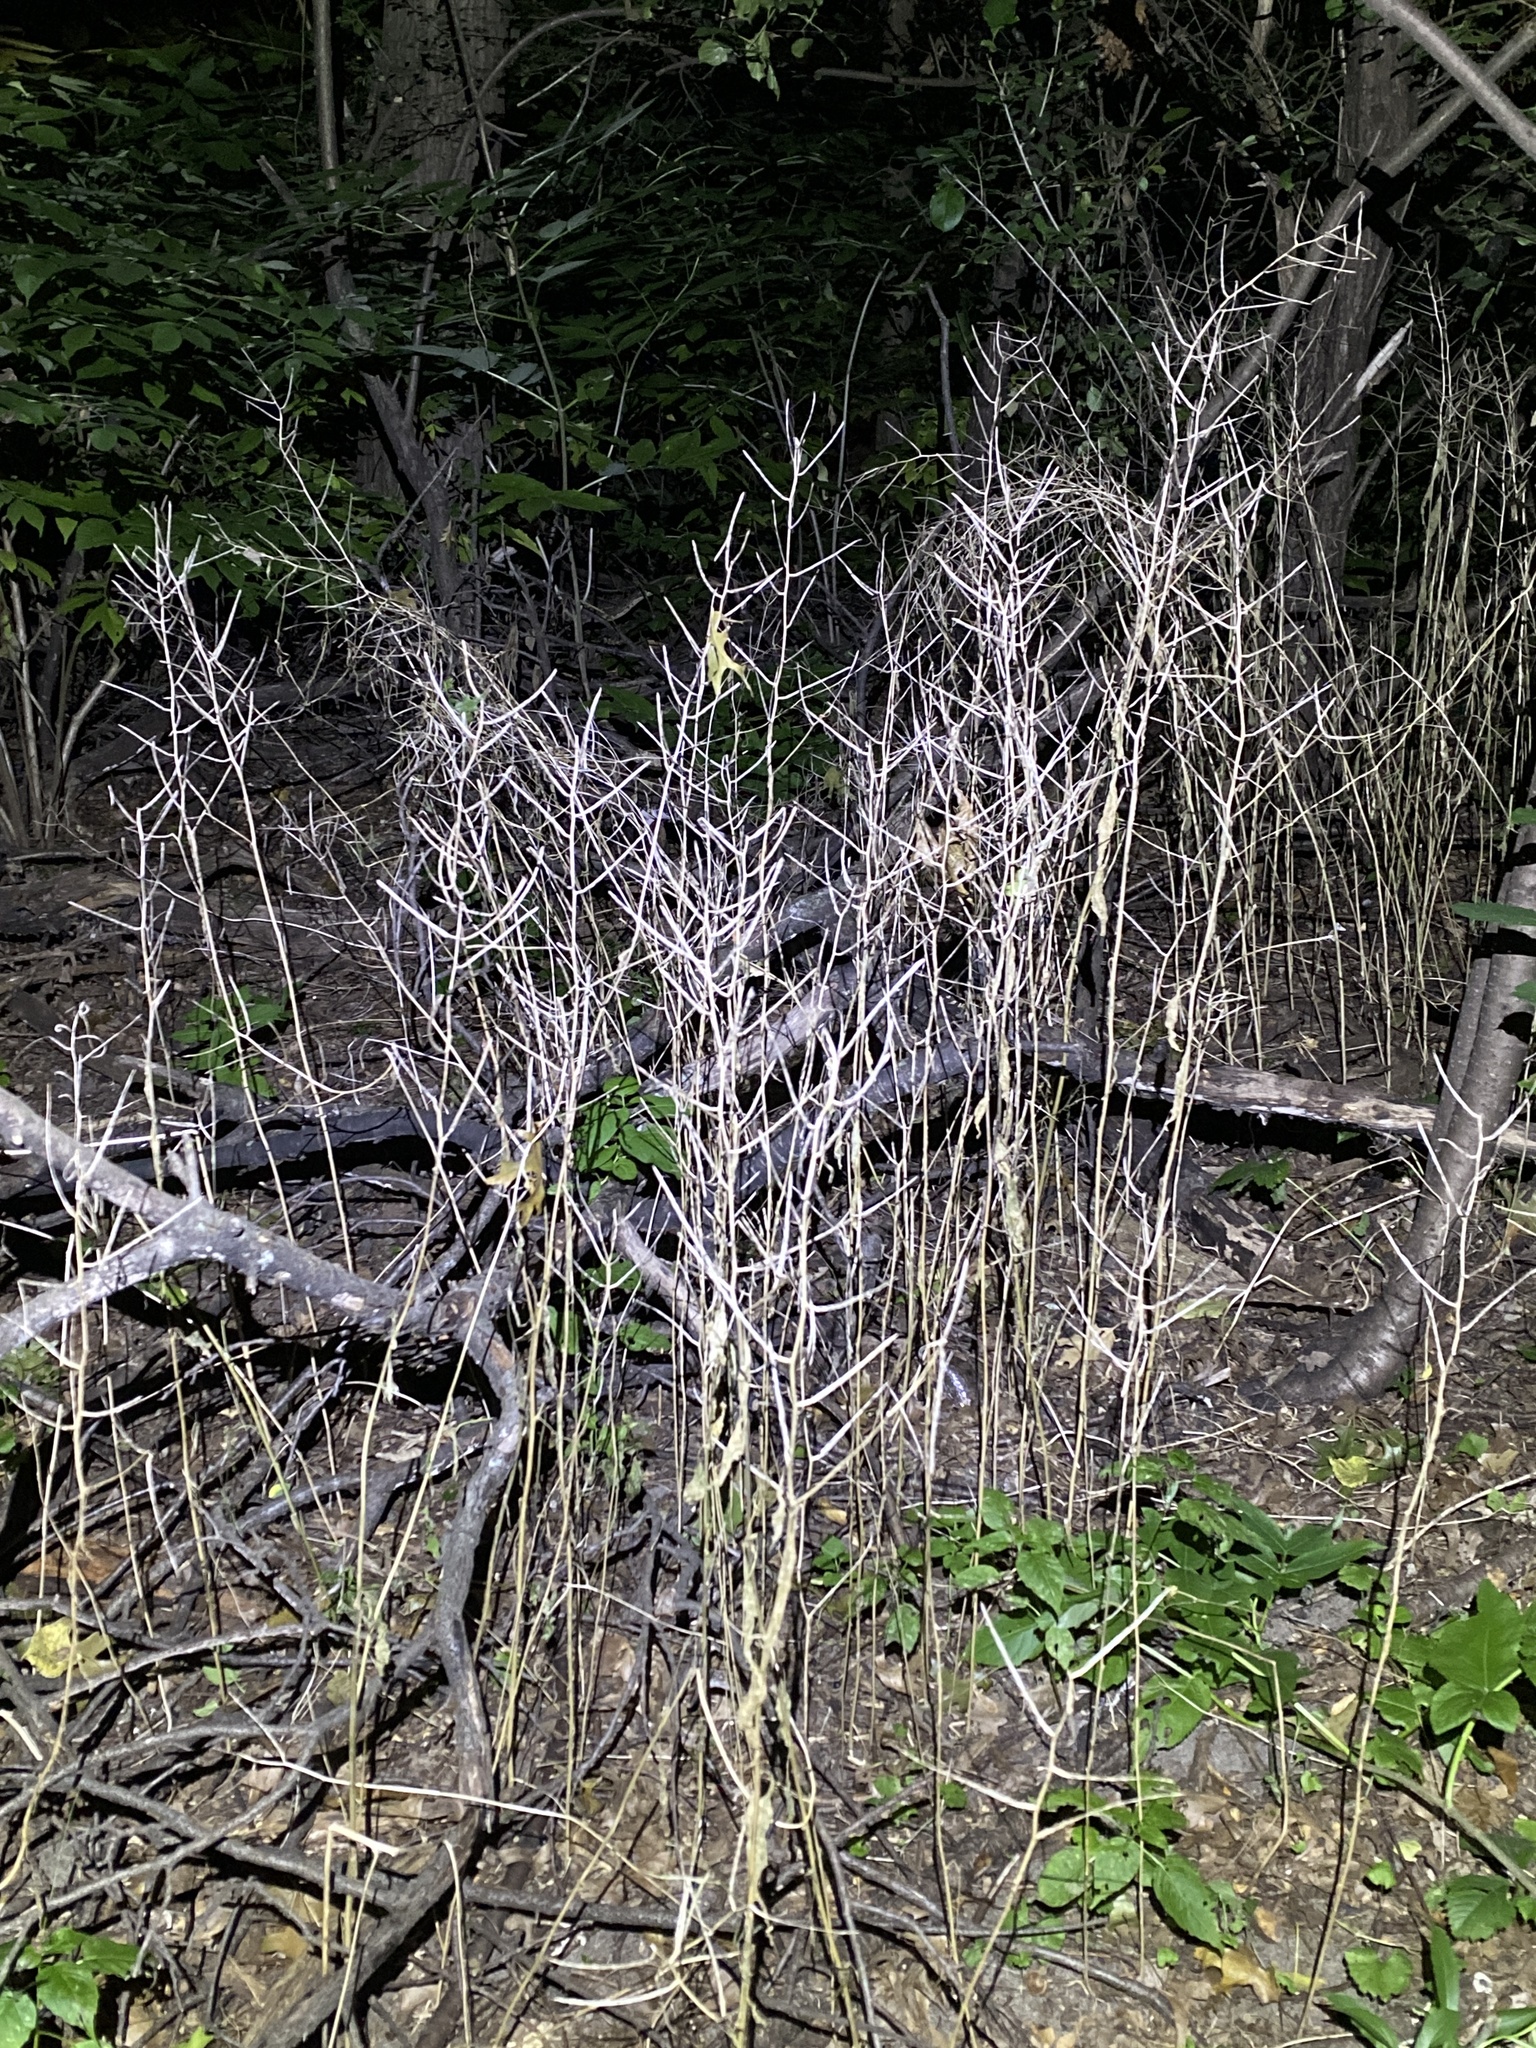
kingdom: Plantae
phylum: Tracheophyta
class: Magnoliopsida
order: Brassicales
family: Brassicaceae
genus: Alliaria
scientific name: Alliaria petiolata
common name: Garlic mustard
